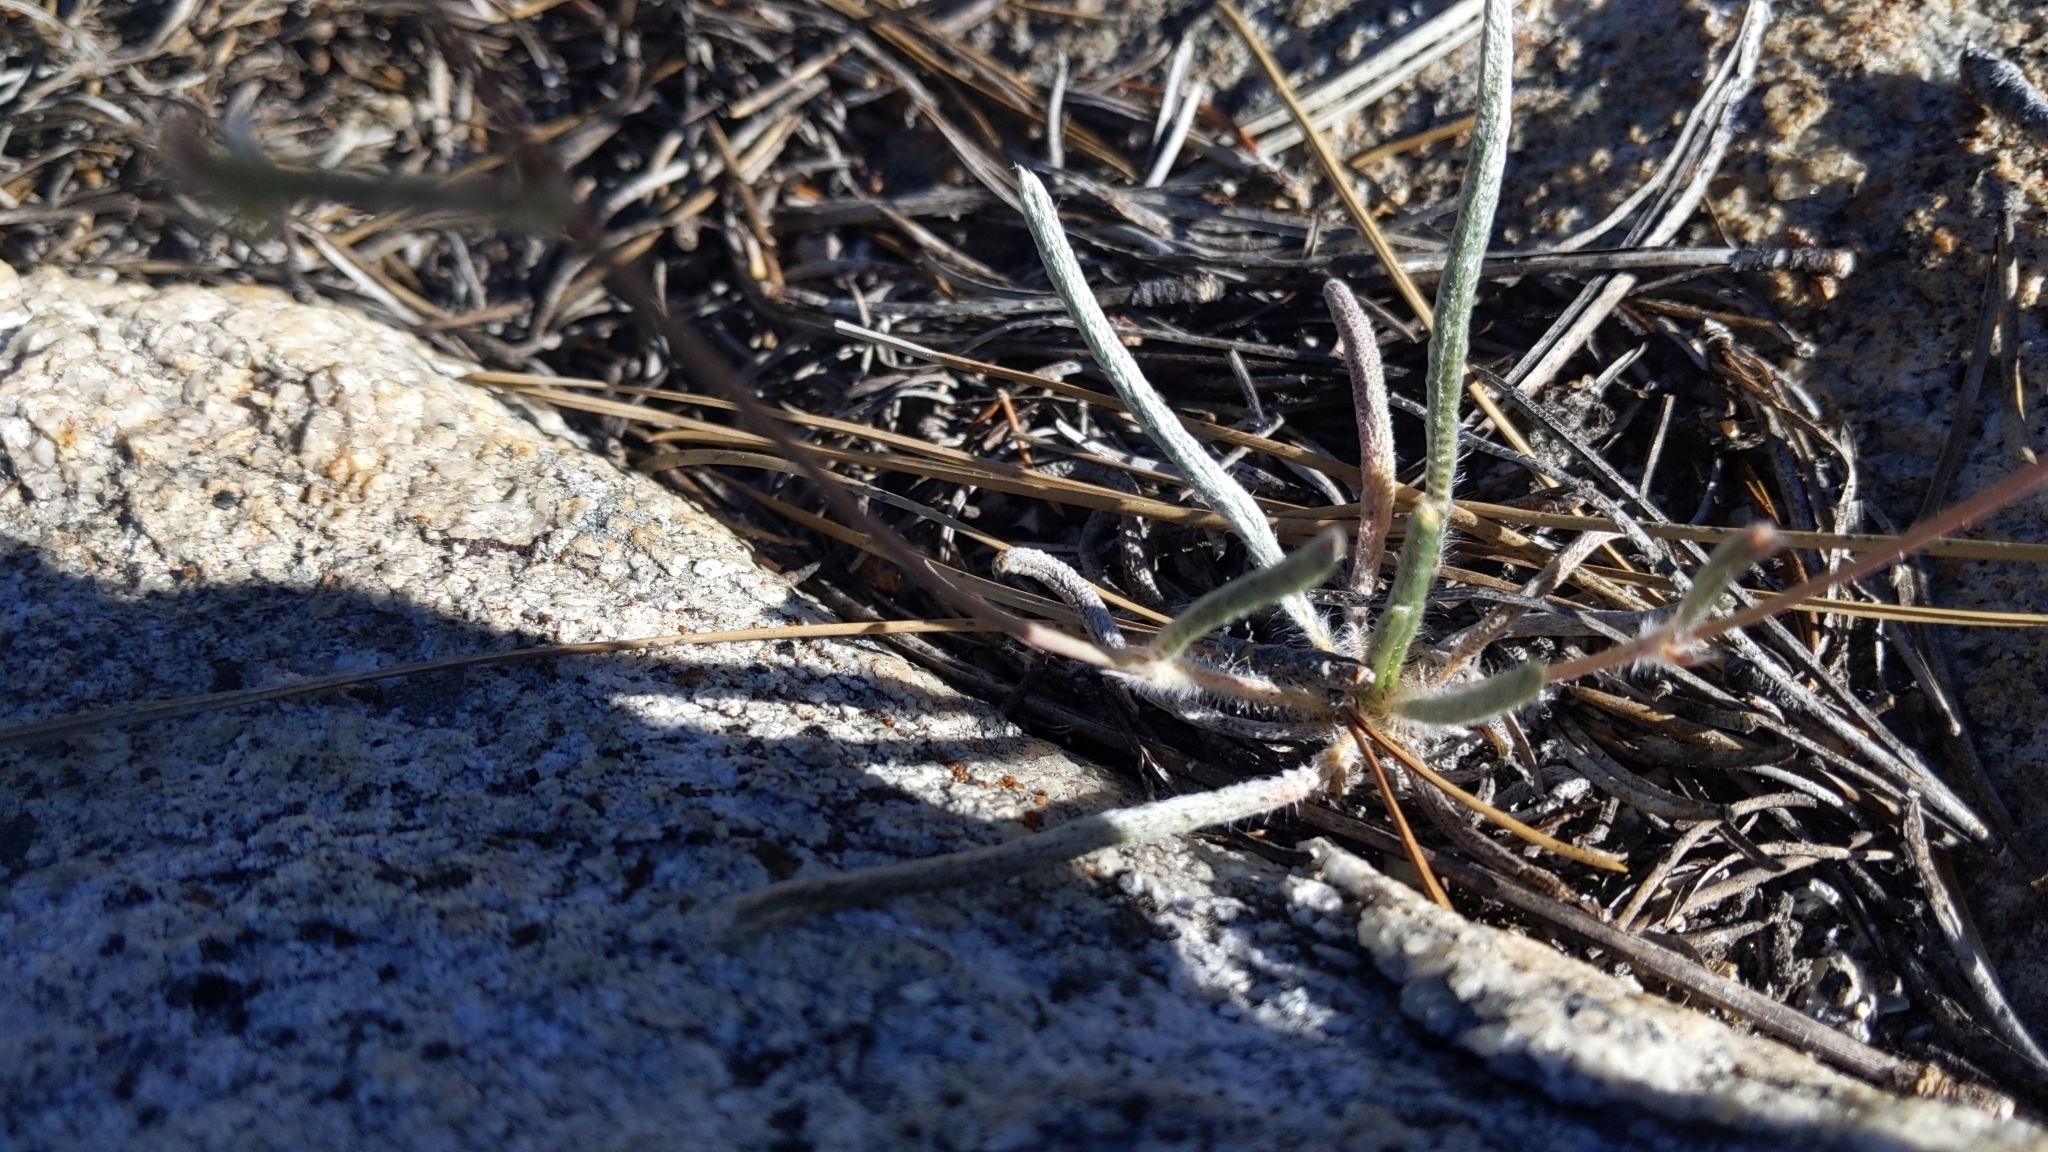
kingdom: Plantae
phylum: Tracheophyta
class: Magnoliopsida
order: Rosales
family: Rosaceae
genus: Potentilla
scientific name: Potentilla santolinoides
